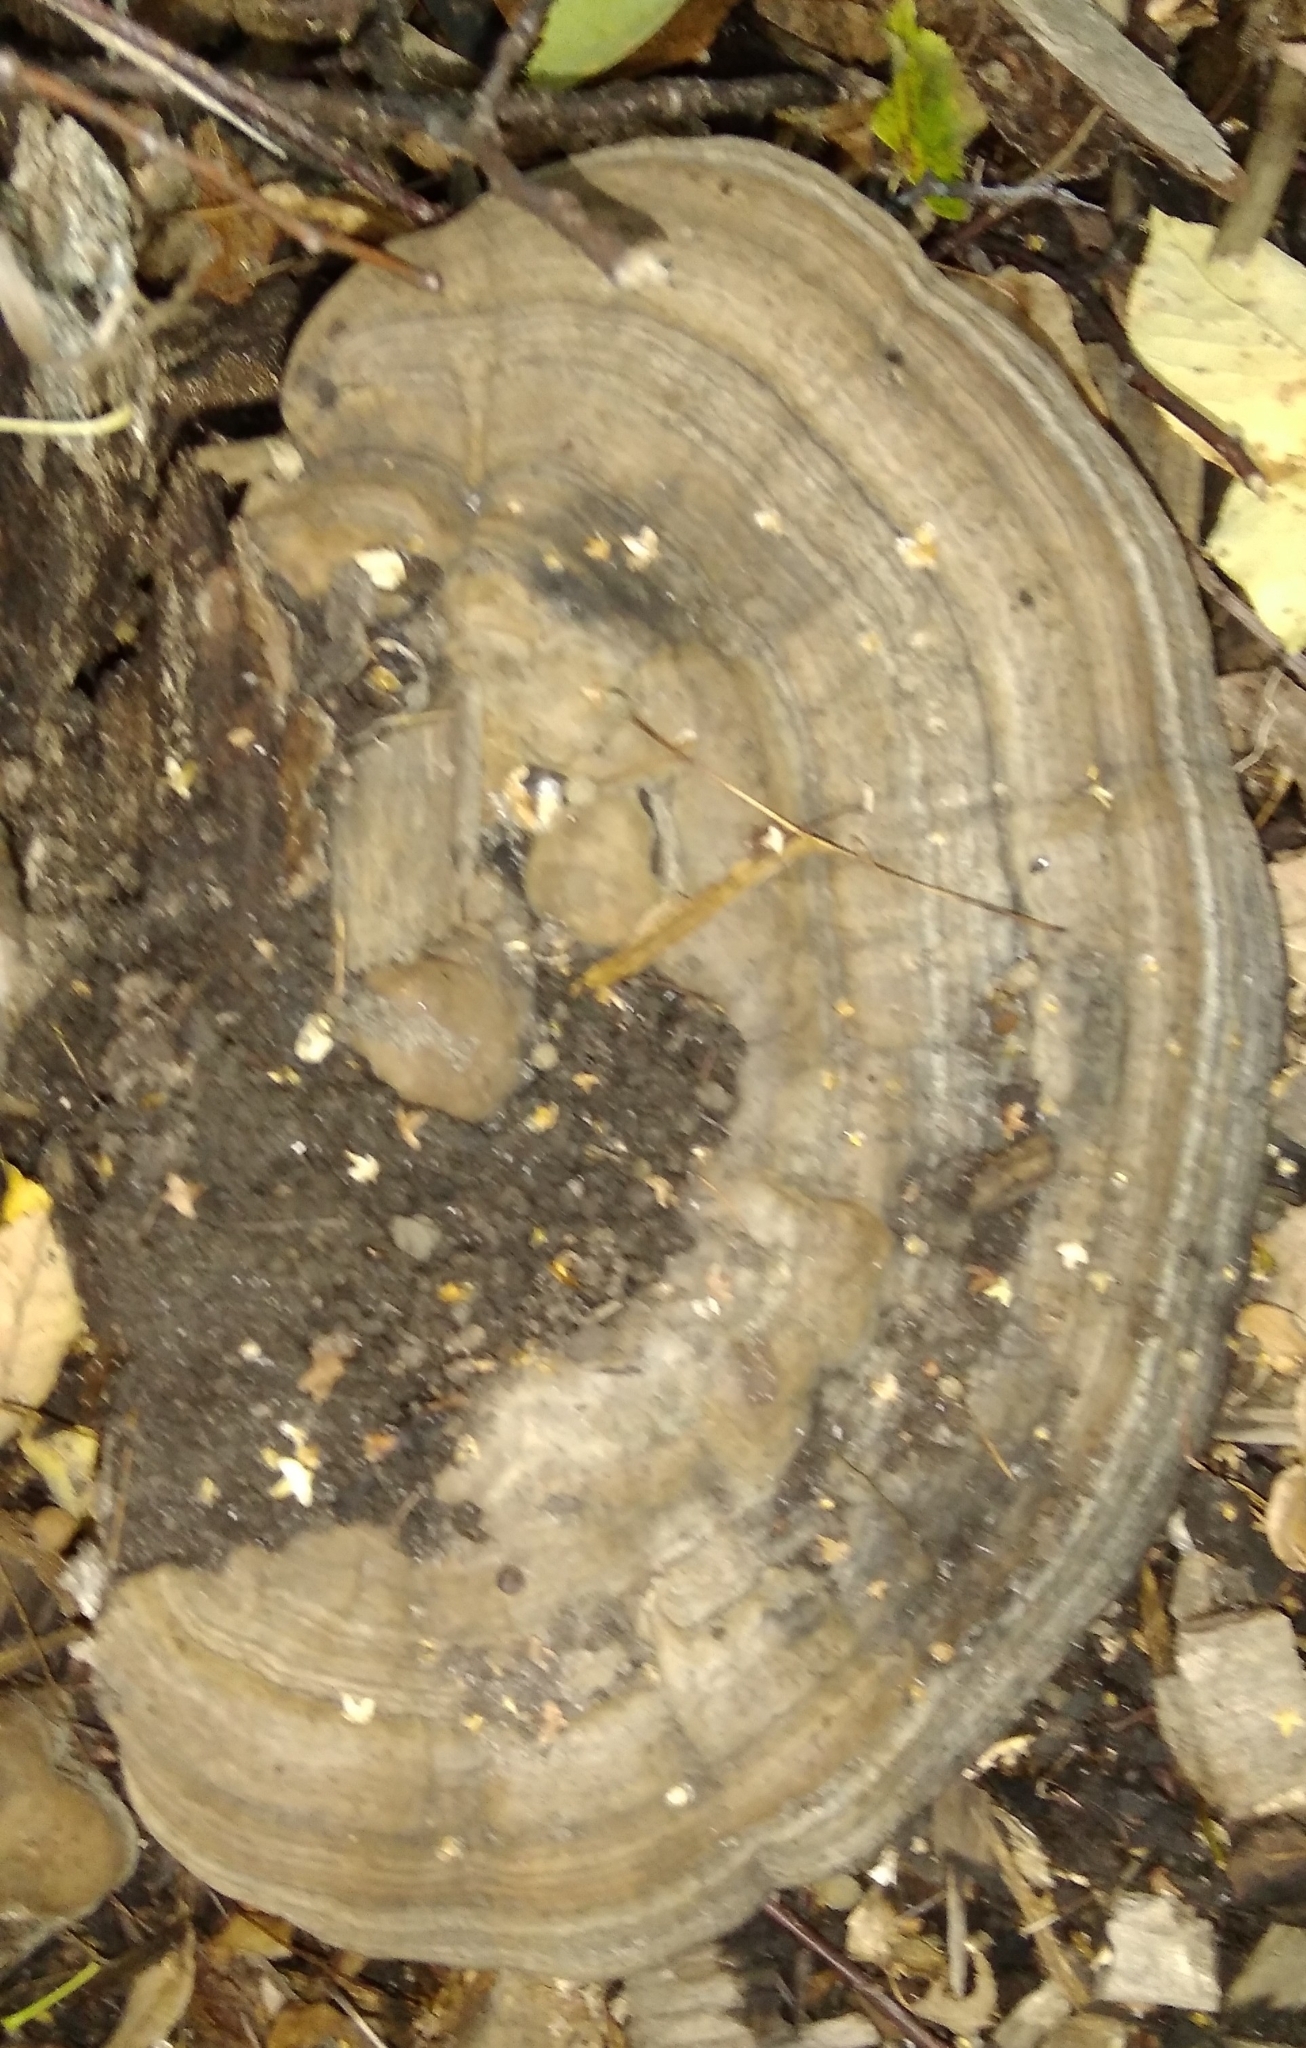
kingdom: Fungi
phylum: Basidiomycota
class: Agaricomycetes
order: Polyporales
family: Polyporaceae
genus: Ganoderma
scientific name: Ganoderma applanatum
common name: Artist's bracket
